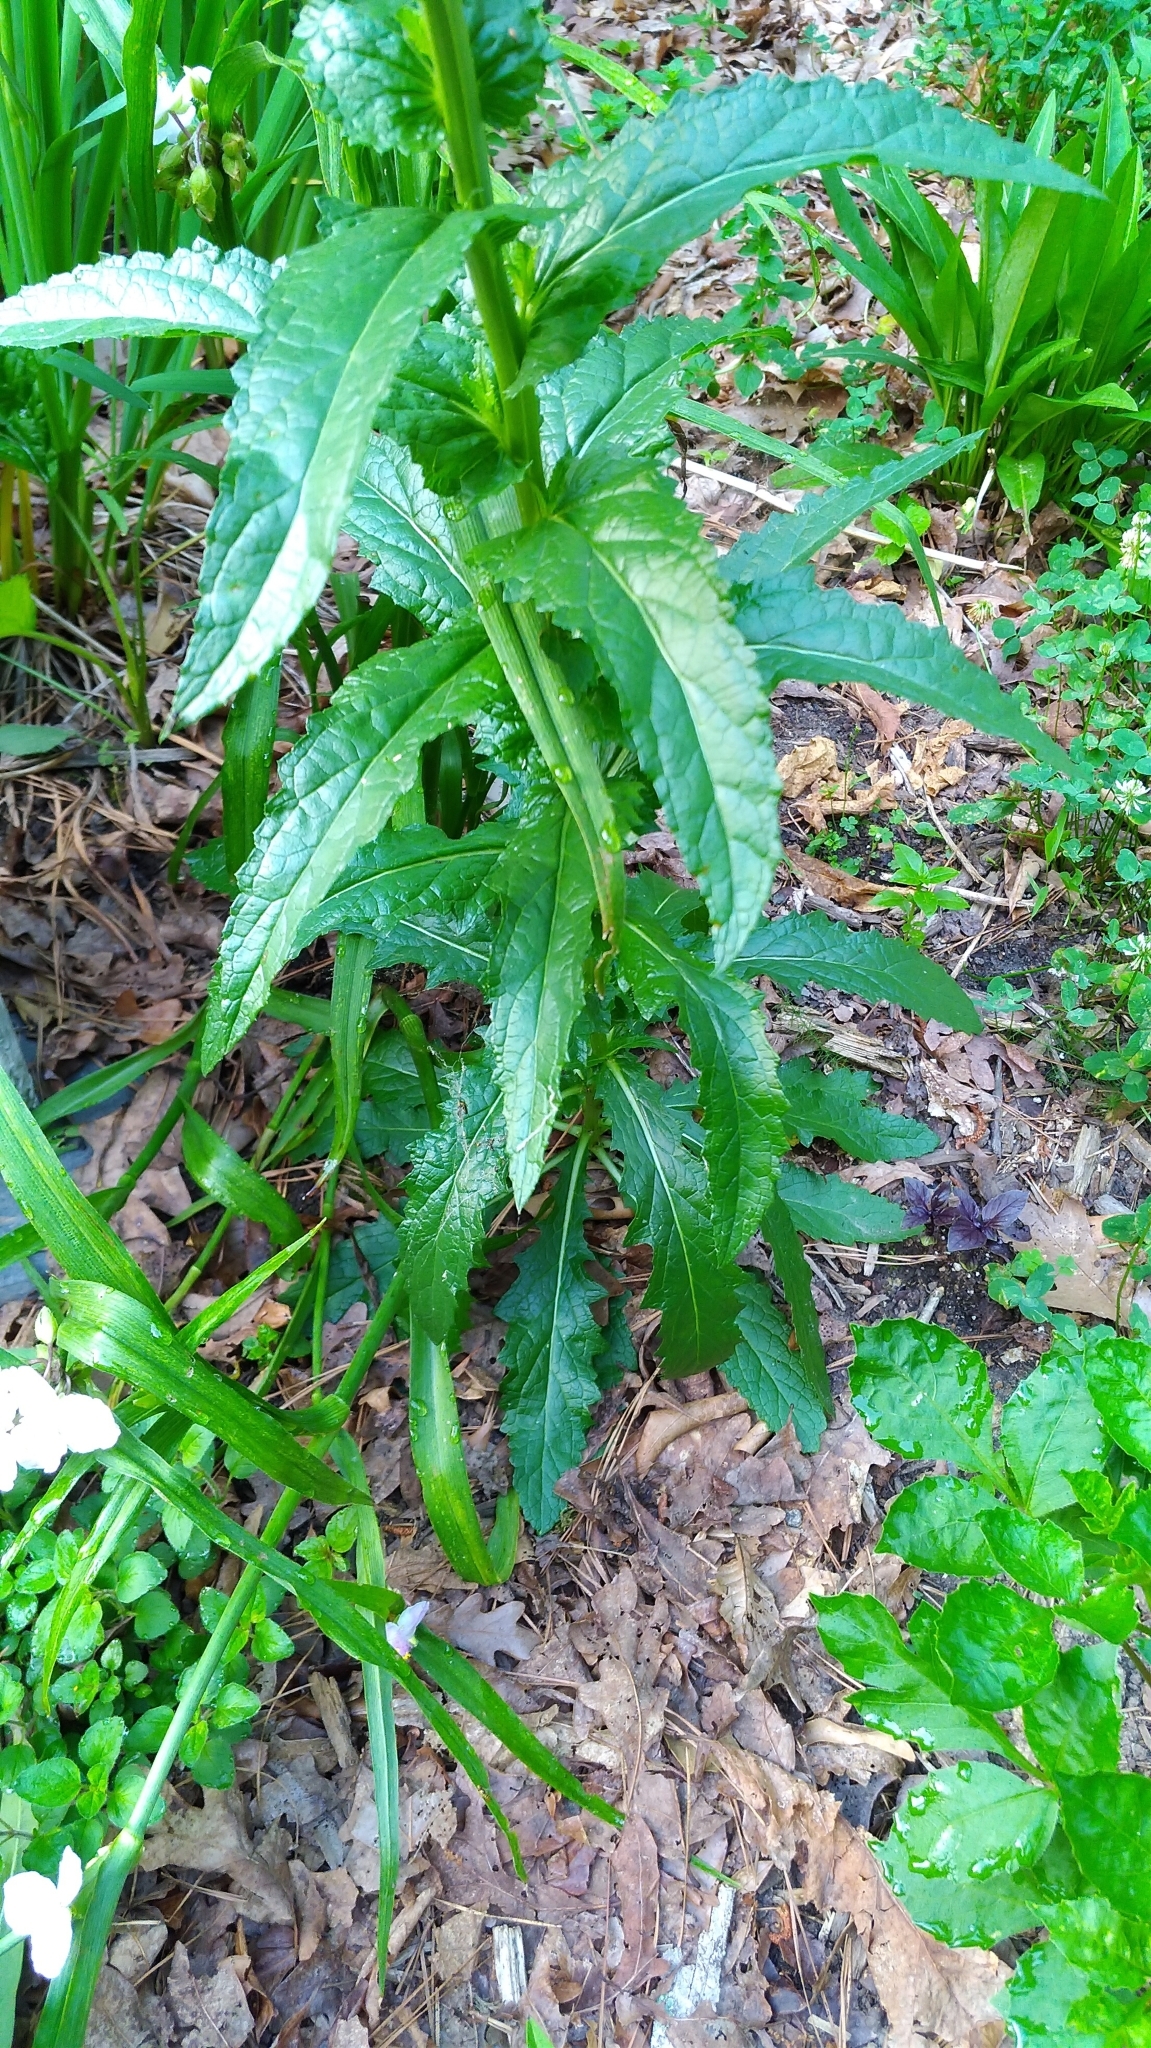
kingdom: Plantae
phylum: Tracheophyta
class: Magnoliopsida
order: Lamiales
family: Scrophulariaceae
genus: Verbascum
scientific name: Verbascum blattaria
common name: Moth mullein
